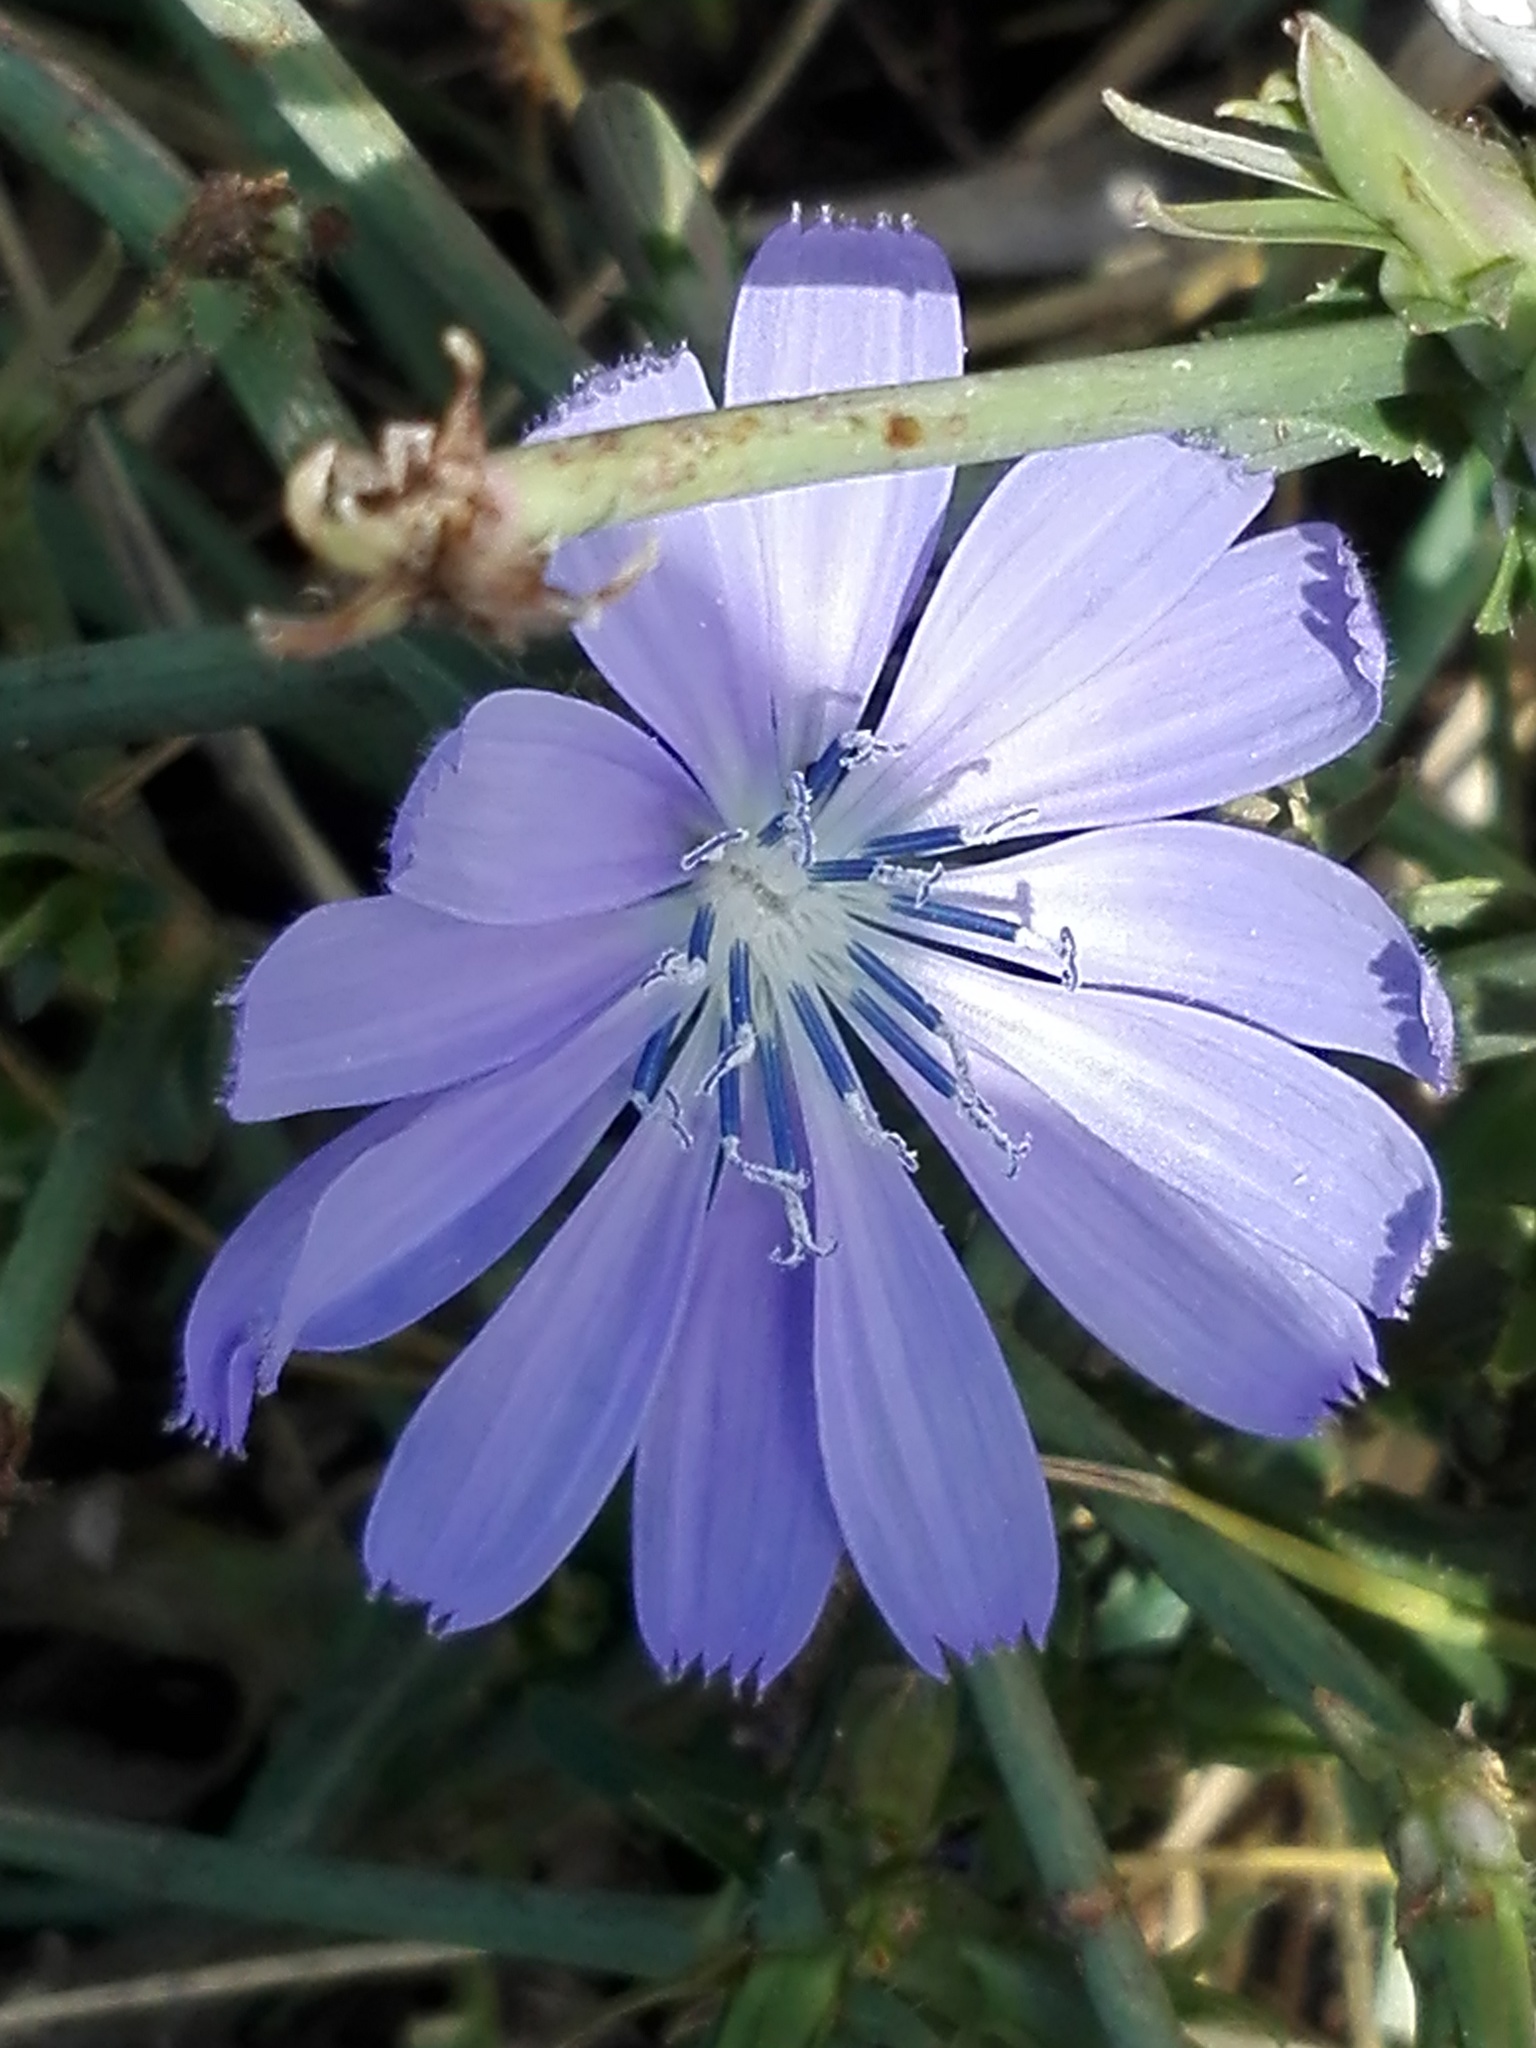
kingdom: Plantae
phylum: Tracheophyta
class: Magnoliopsida
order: Asterales
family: Asteraceae
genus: Cichorium
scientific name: Cichorium intybus
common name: Chicory
